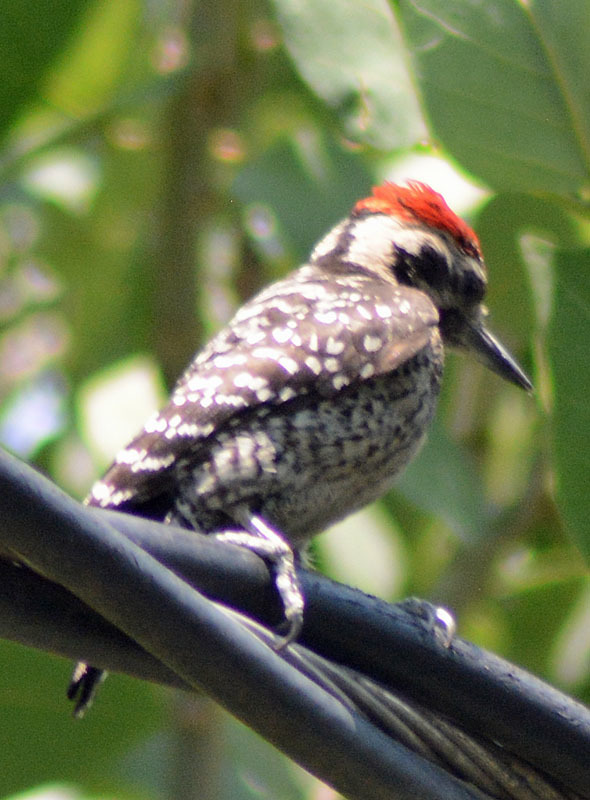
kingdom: Animalia
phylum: Chordata
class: Aves
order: Piciformes
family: Picidae
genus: Dryobates
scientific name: Dryobates scalaris
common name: Ladder-backed woodpecker
